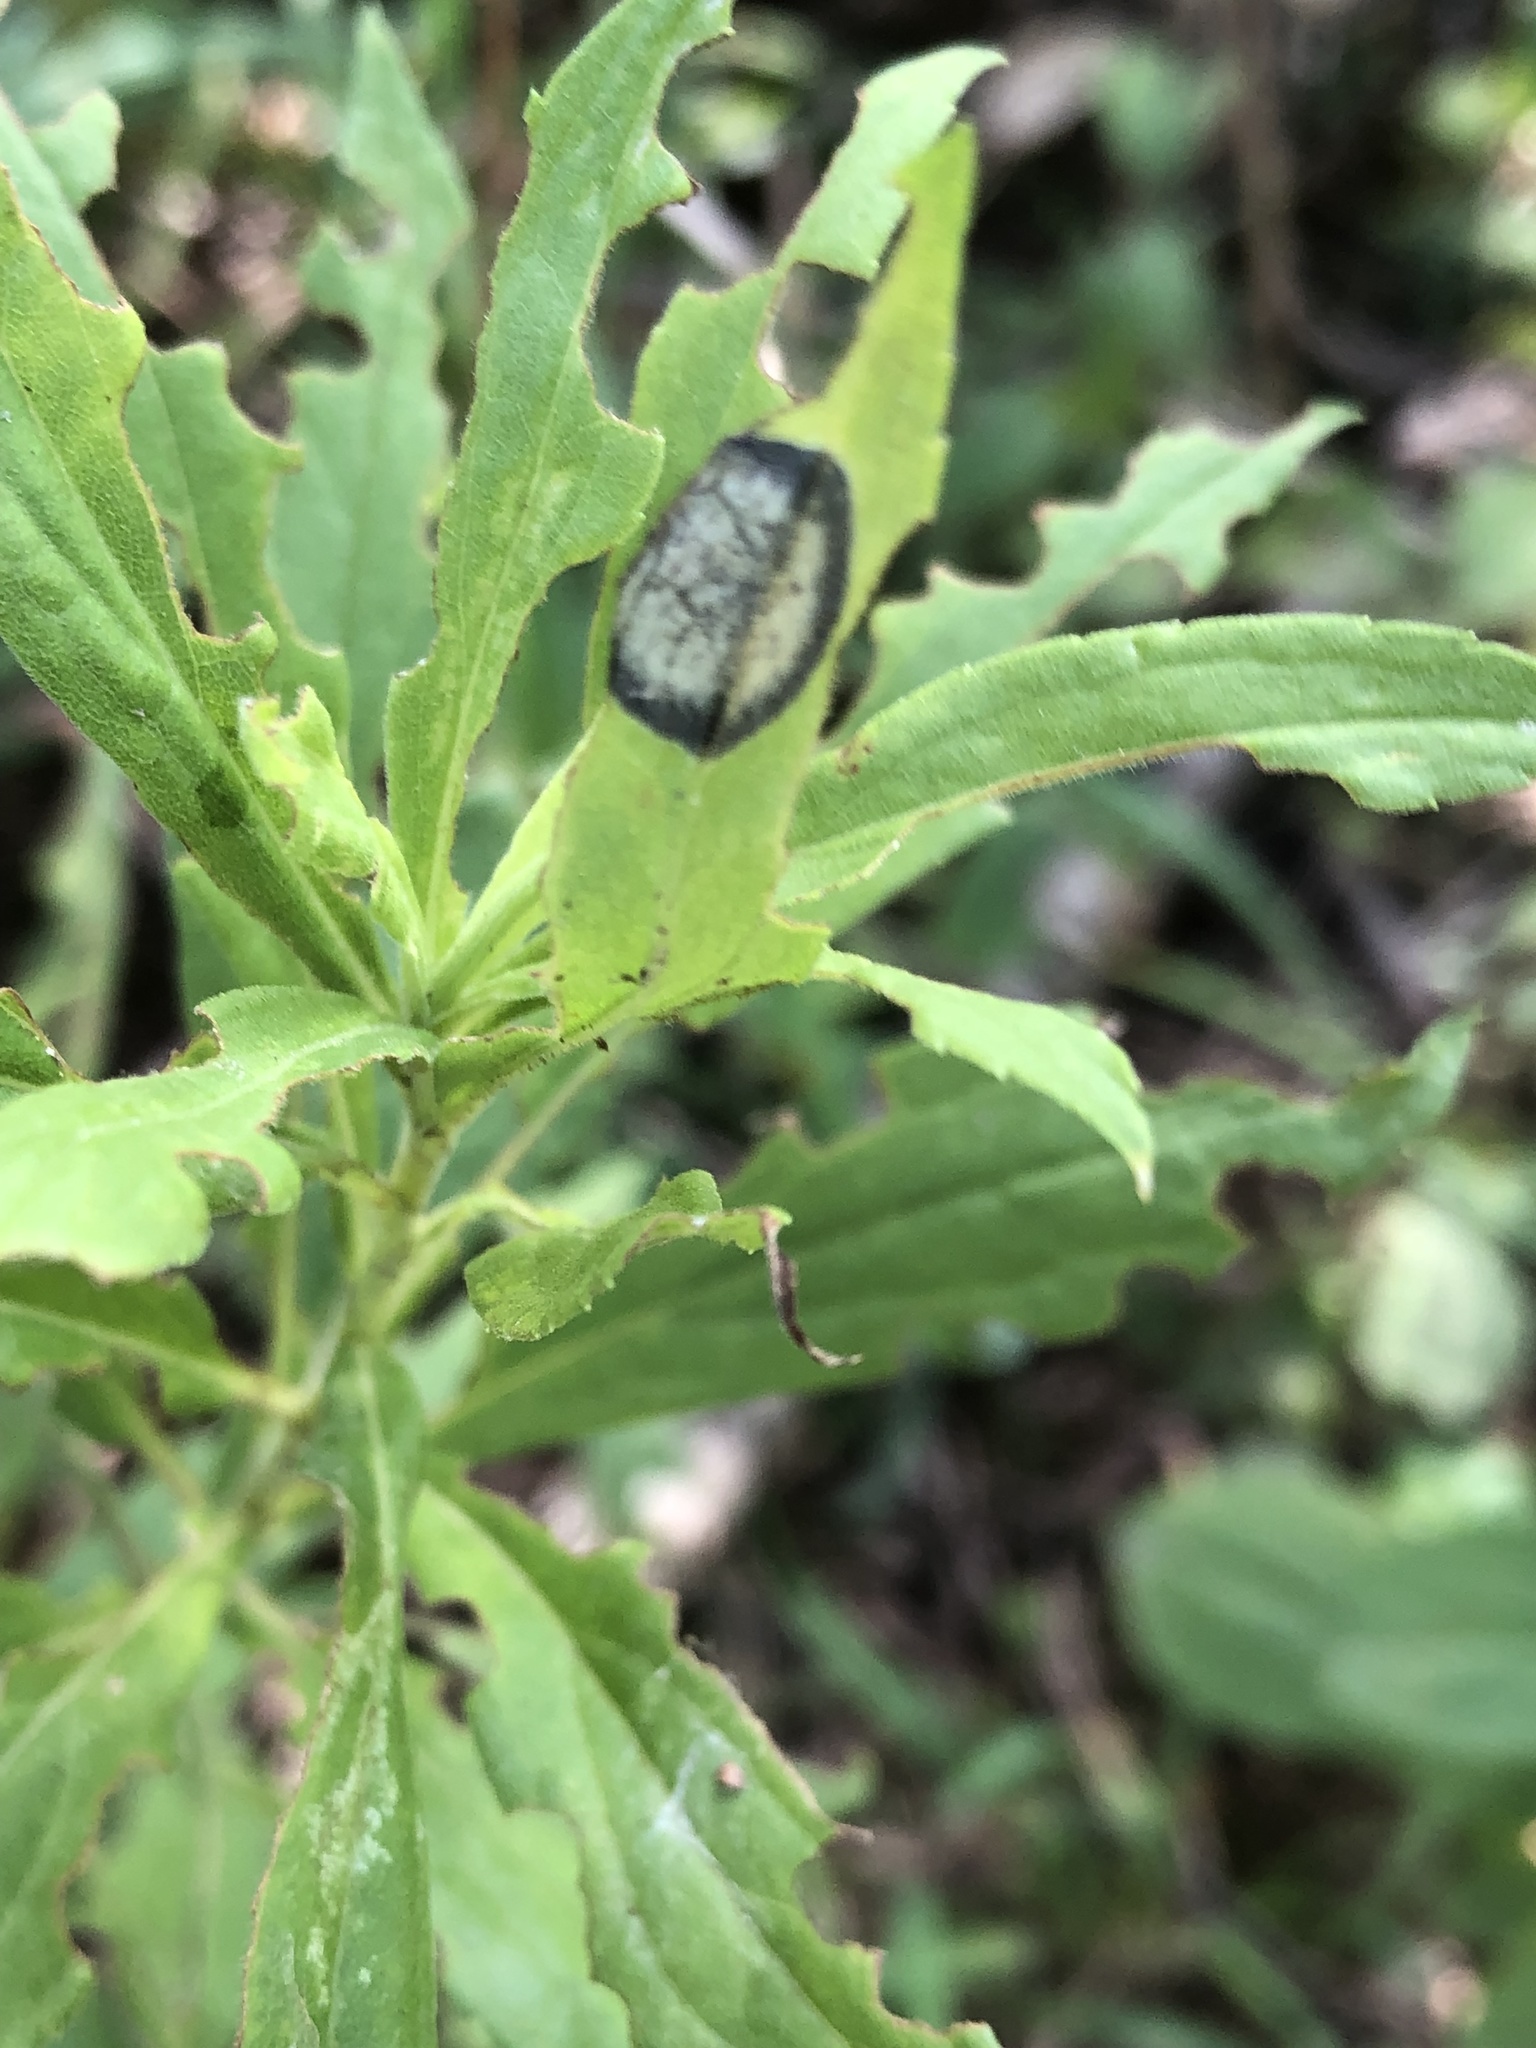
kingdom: Animalia
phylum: Arthropoda
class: Insecta
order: Diptera
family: Cecidomyiidae
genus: Asteromyia
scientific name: Asteromyia carbonifera
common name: Carbonifera goldenrod gall midge
